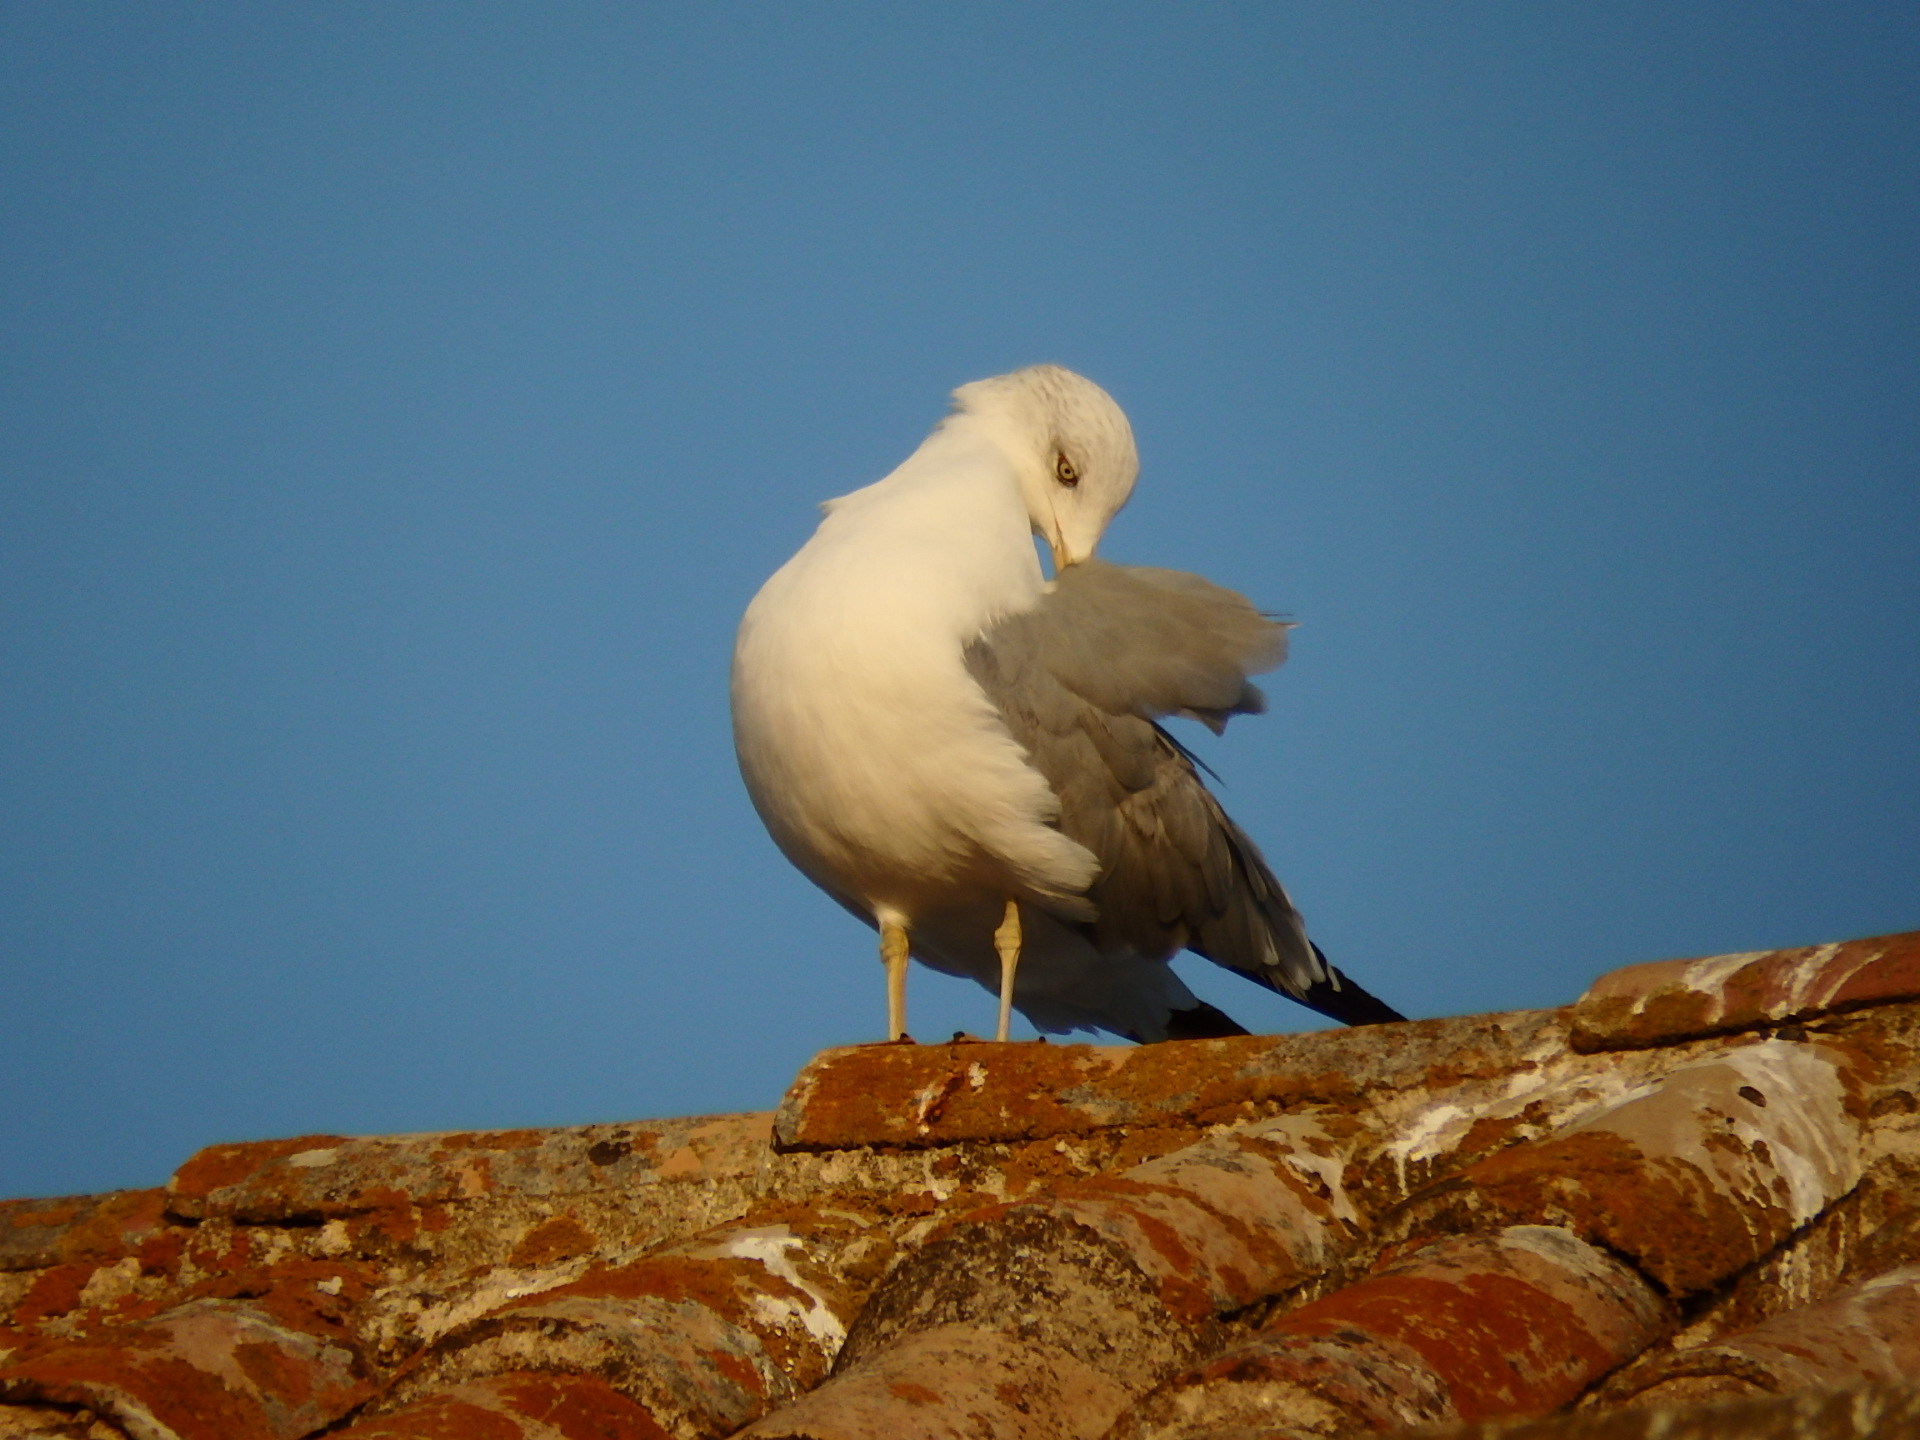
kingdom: Animalia
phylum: Chordata
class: Aves
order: Charadriiformes
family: Laridae
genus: Larus
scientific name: Larus michahellis
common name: Yellow-legged gull
